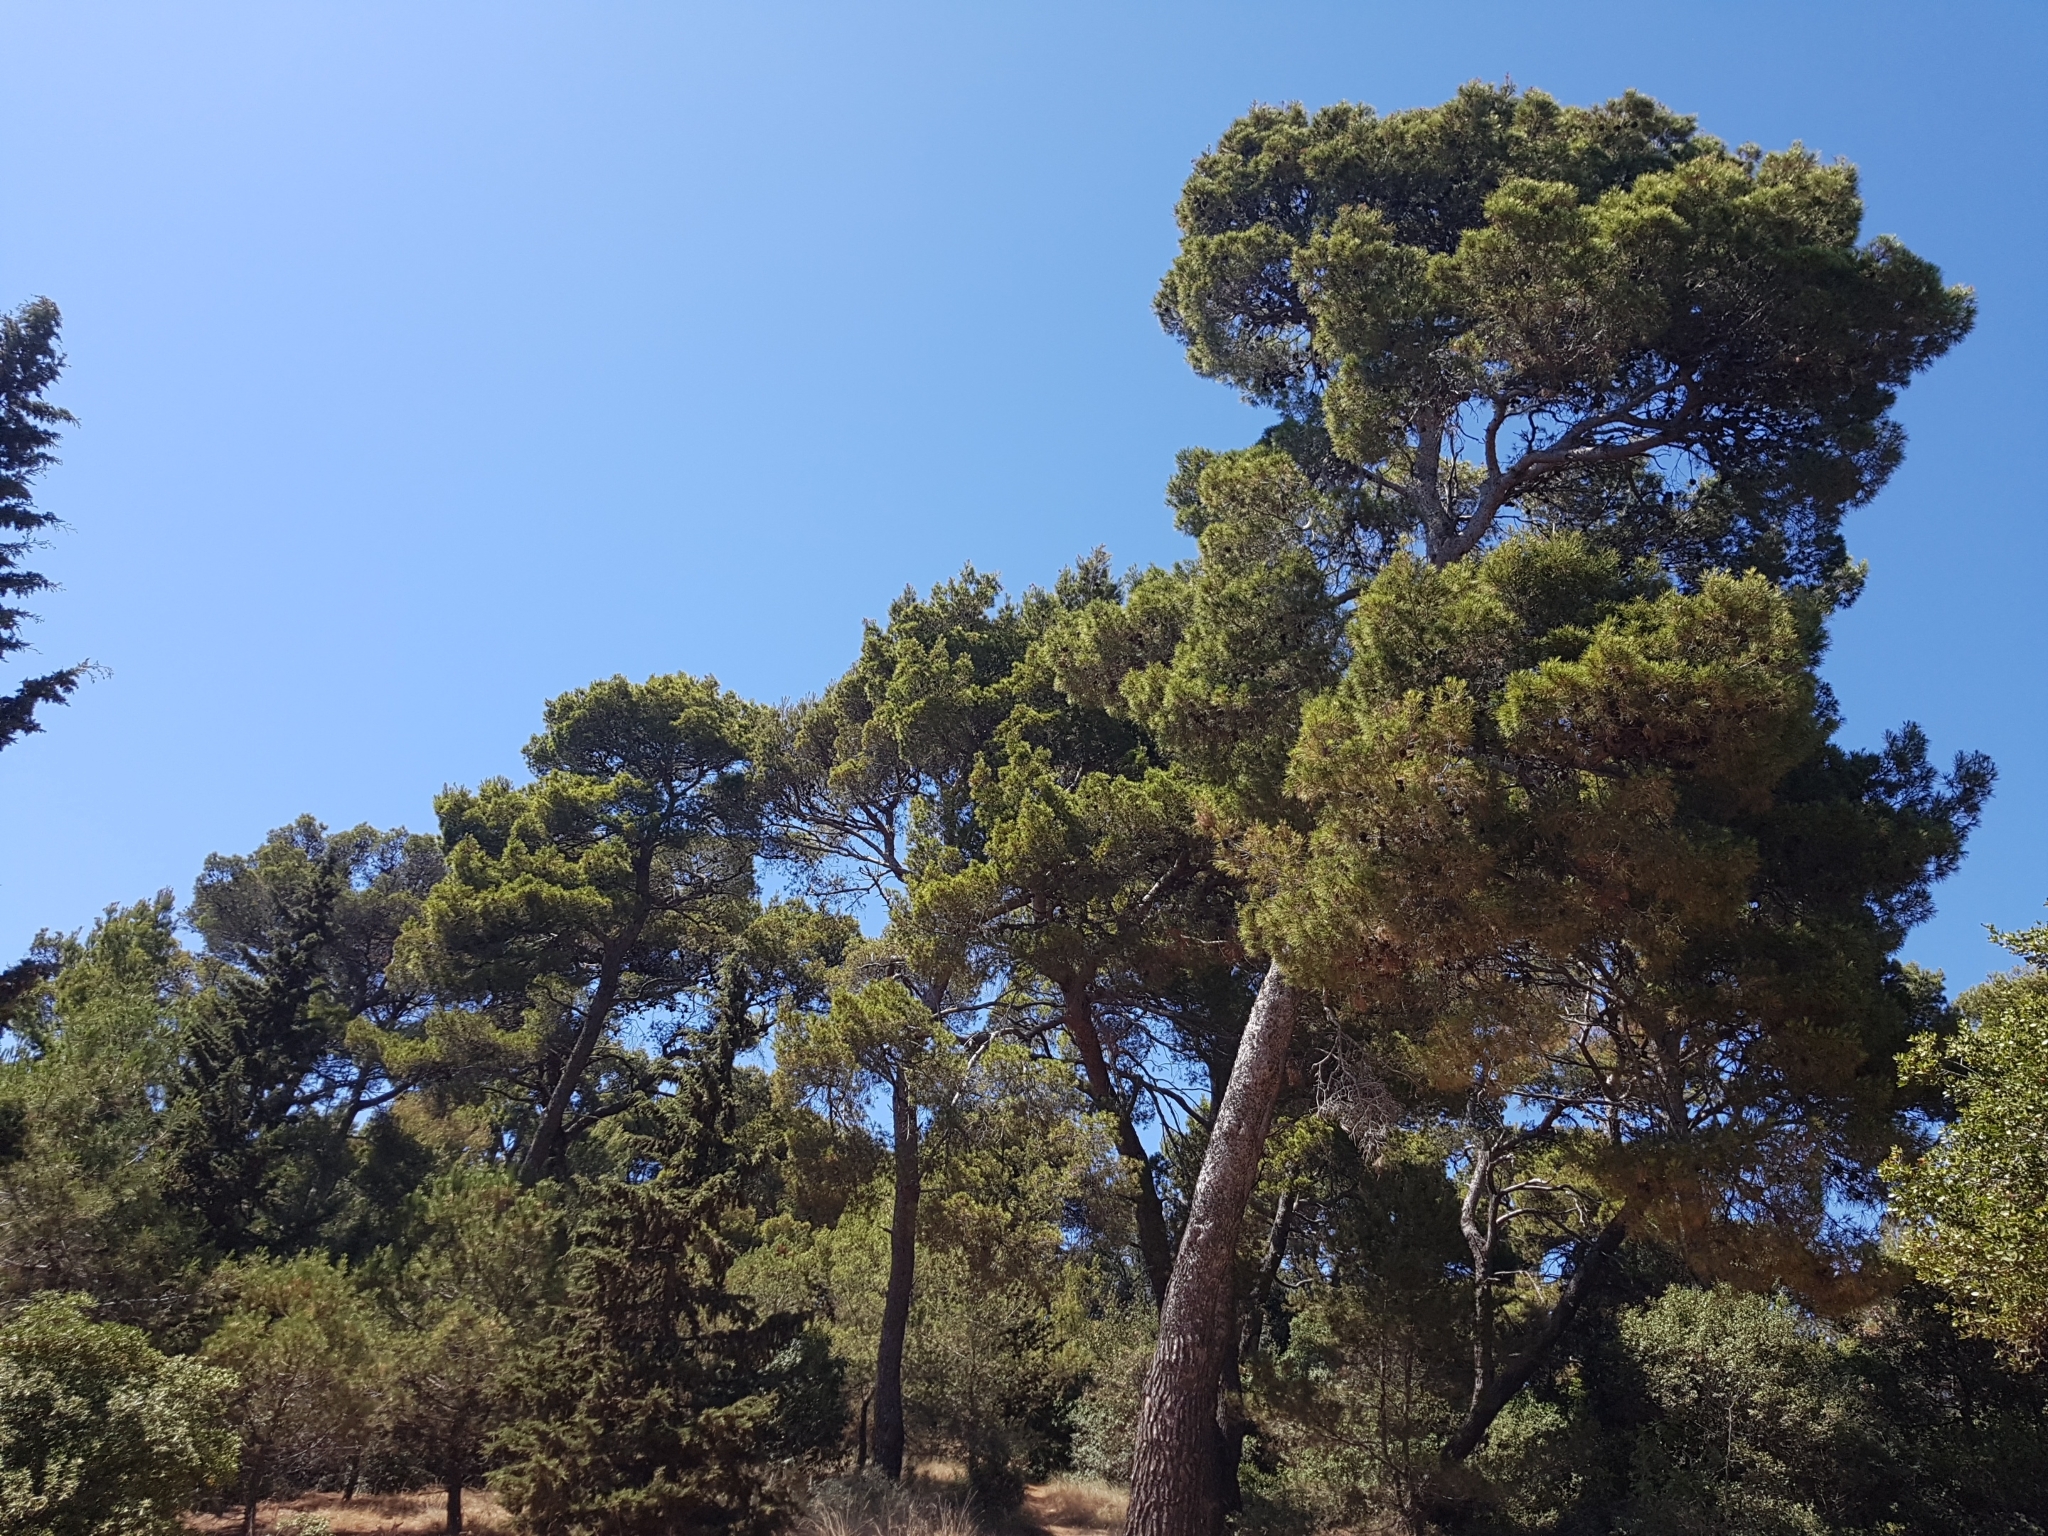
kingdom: Plantae
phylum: Tracheophyta
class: Pinopsida
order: Pinales
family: Pinaceae
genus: Pinus
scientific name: Pinus halepensis
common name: Aleppo pine
